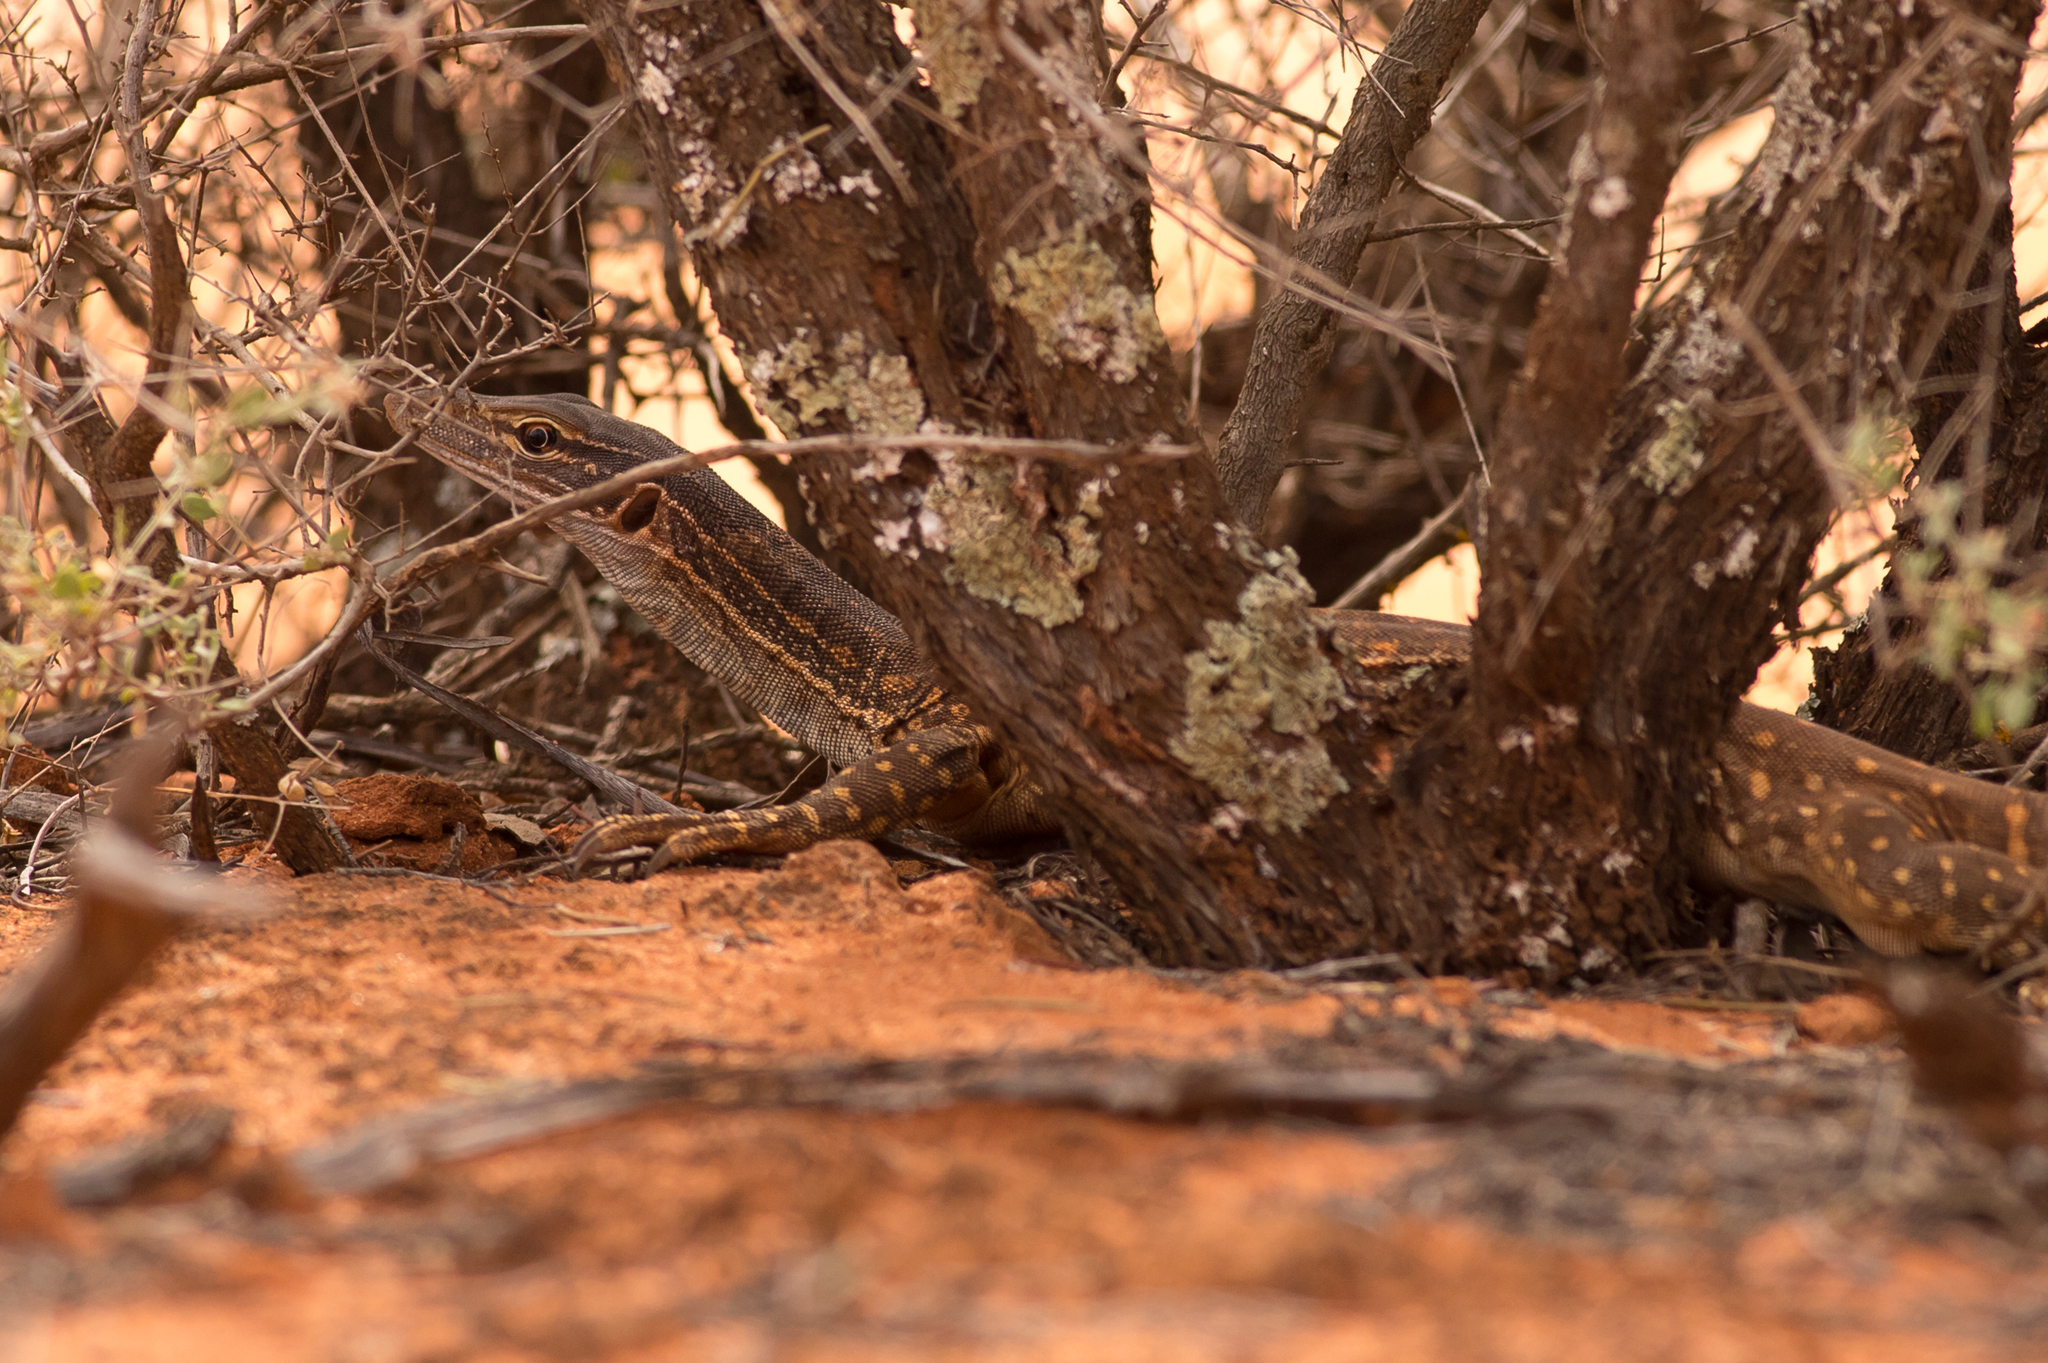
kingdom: Animalia
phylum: Chordata
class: Squamata
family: Varanidae
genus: Varanus
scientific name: Varanus gouldii
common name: Gould's goanna
